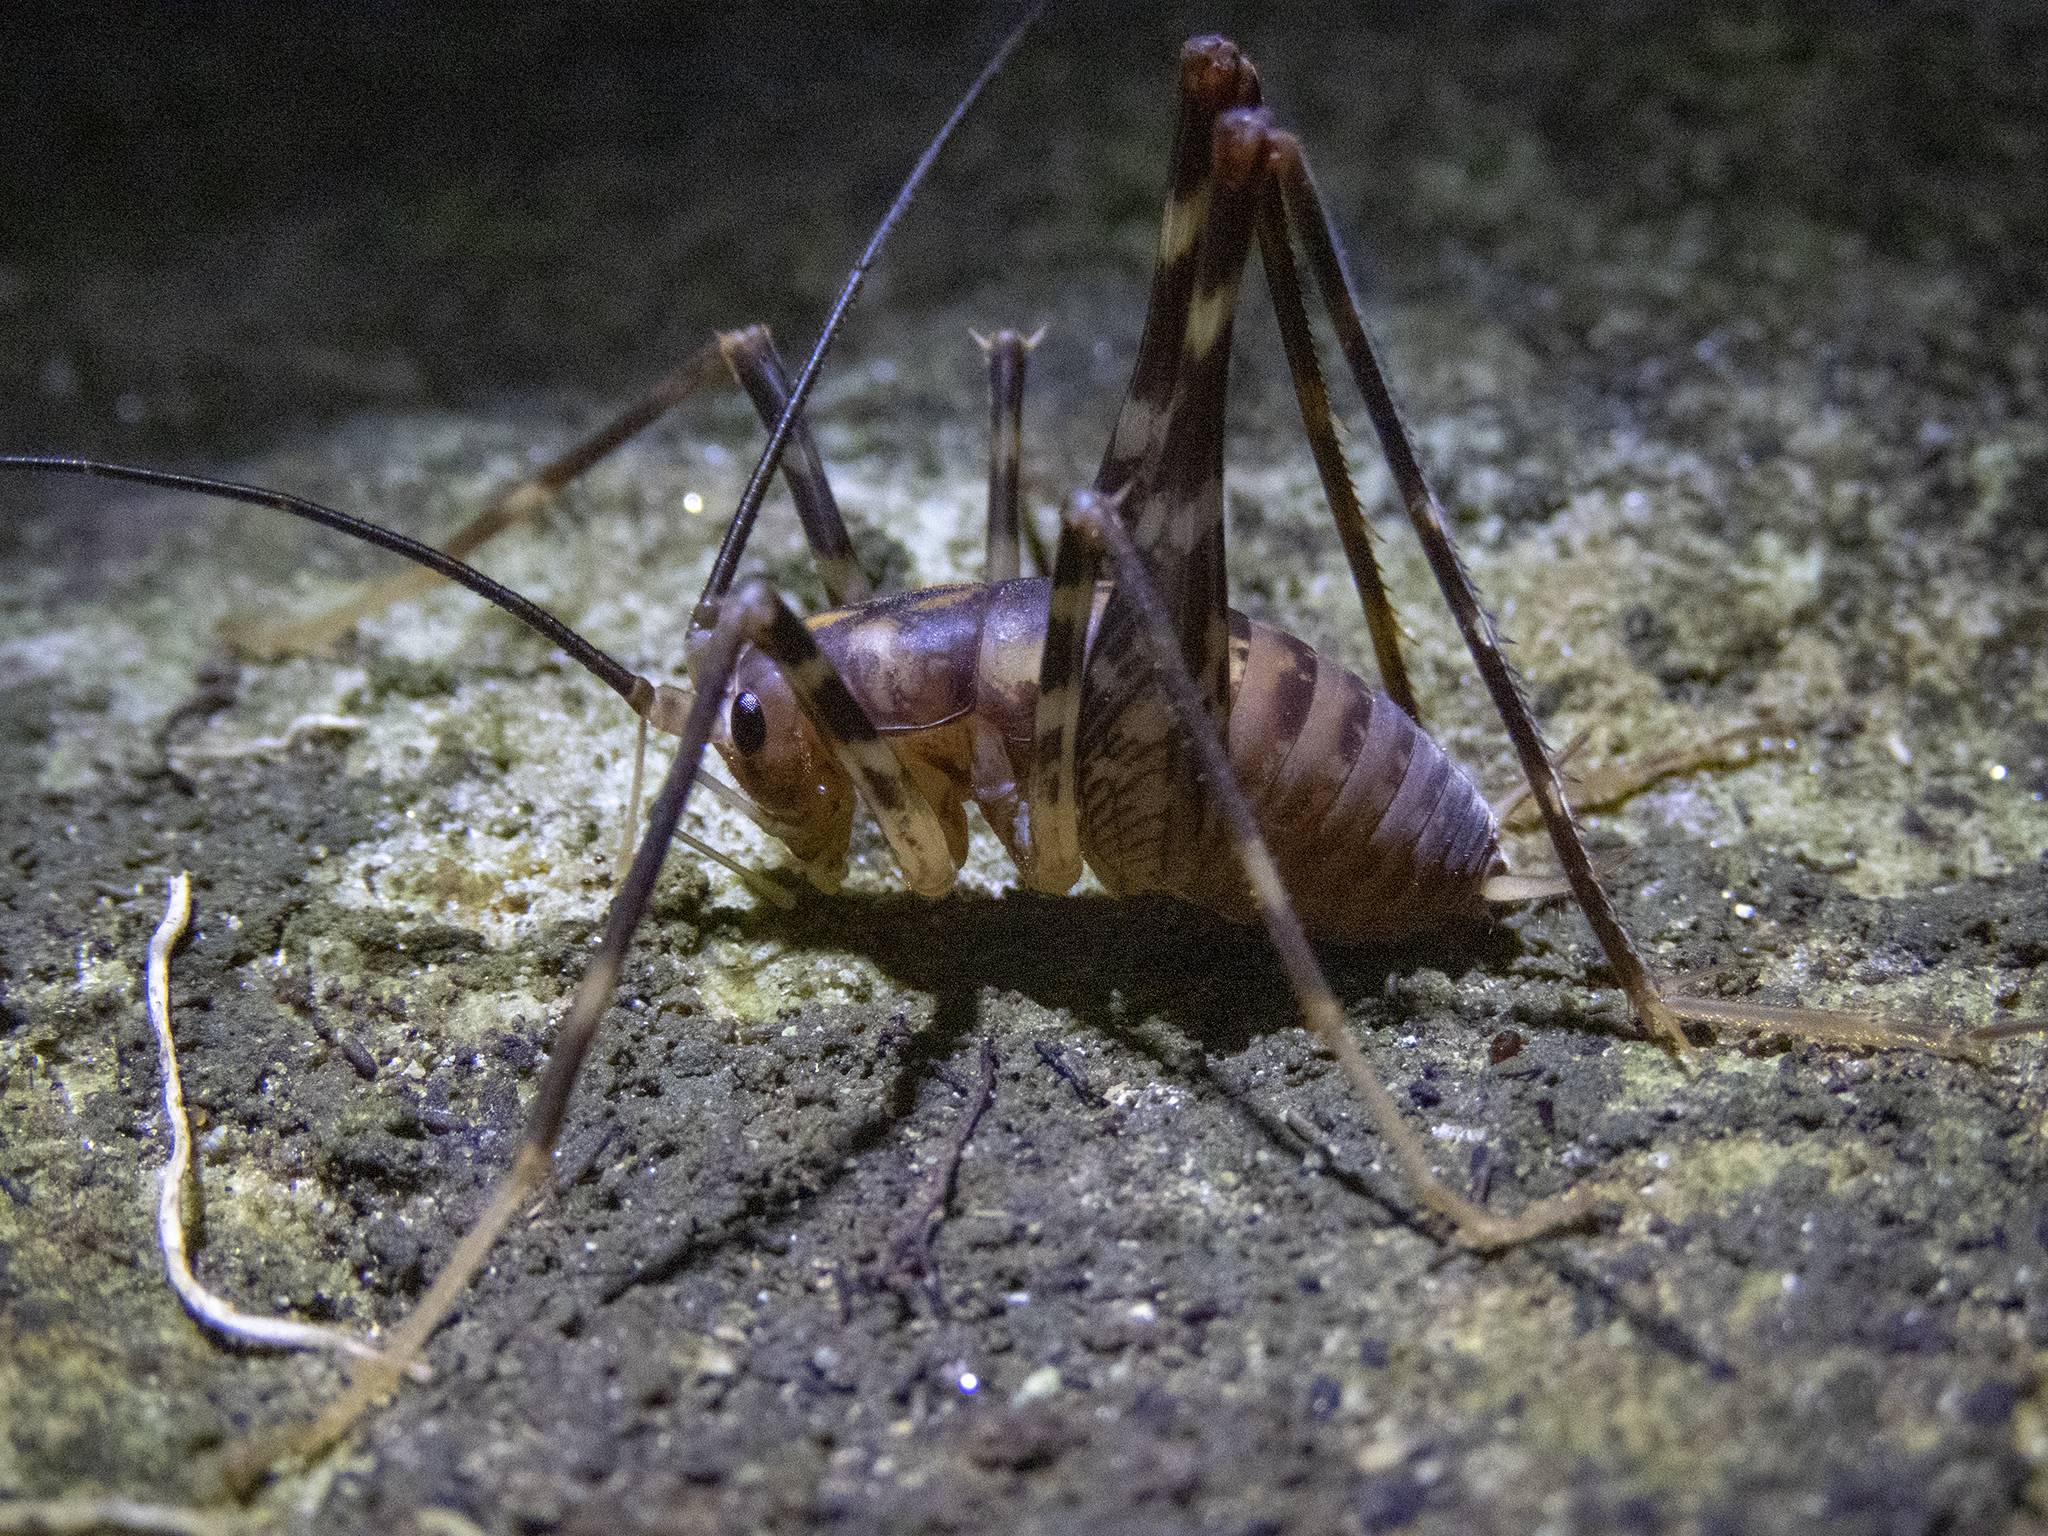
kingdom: Animalia
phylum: Arthropoda
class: Insecta
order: Orthoptera
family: Rhaphidophoridae
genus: Miotopus
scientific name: Miotopus richardsae
